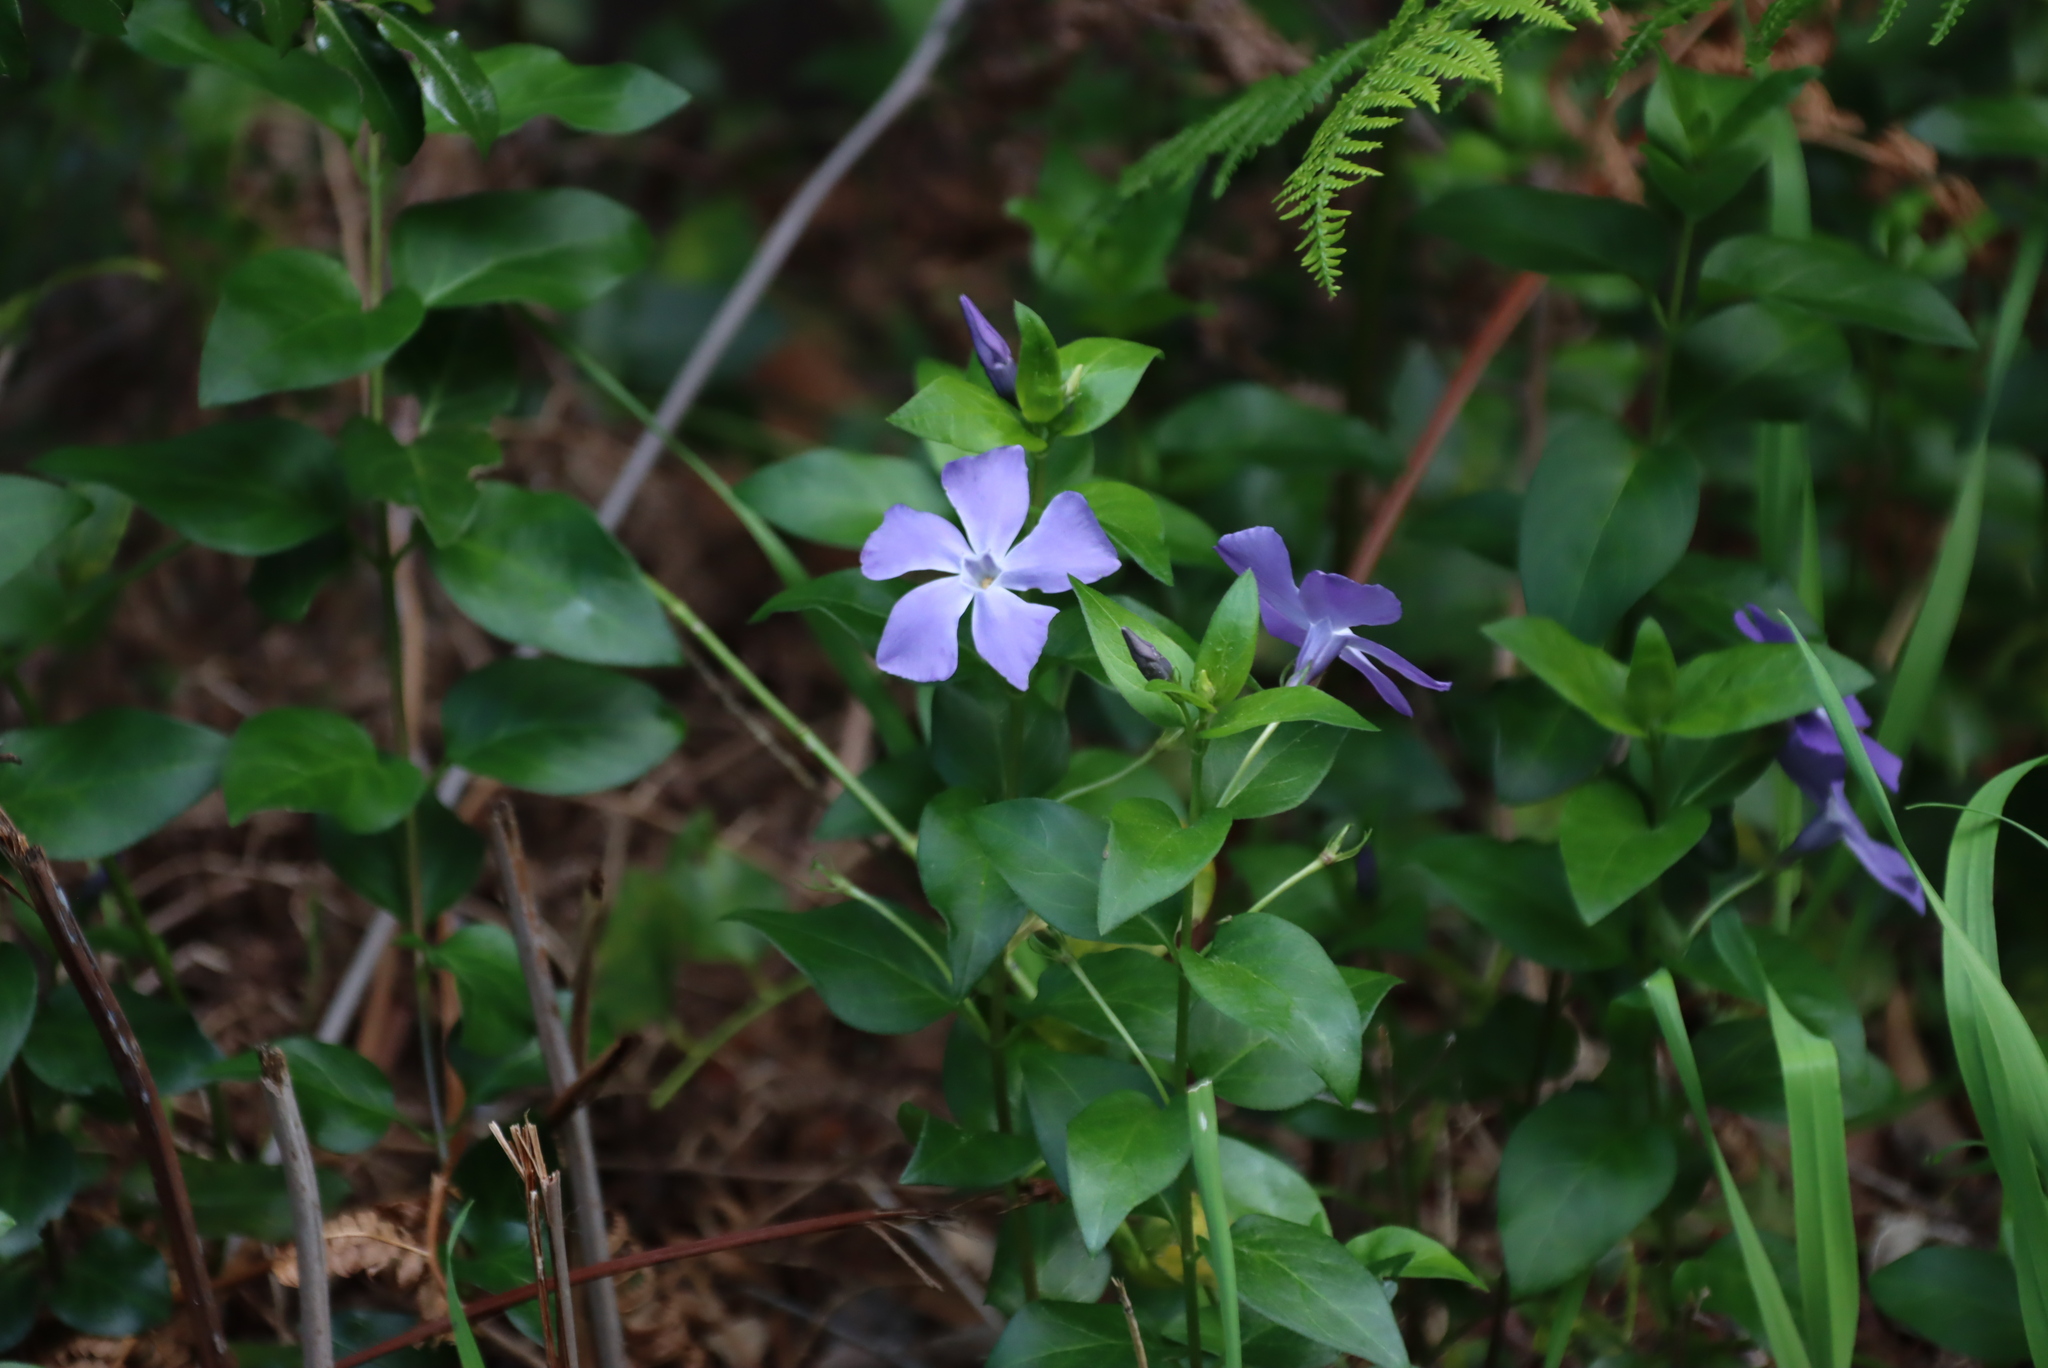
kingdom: Plantae
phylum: Tracheophyta
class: Magnoliopsida
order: Gentianales
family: Apocynaceae
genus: Vinca
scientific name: Vinca major
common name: Greater periwinkle
